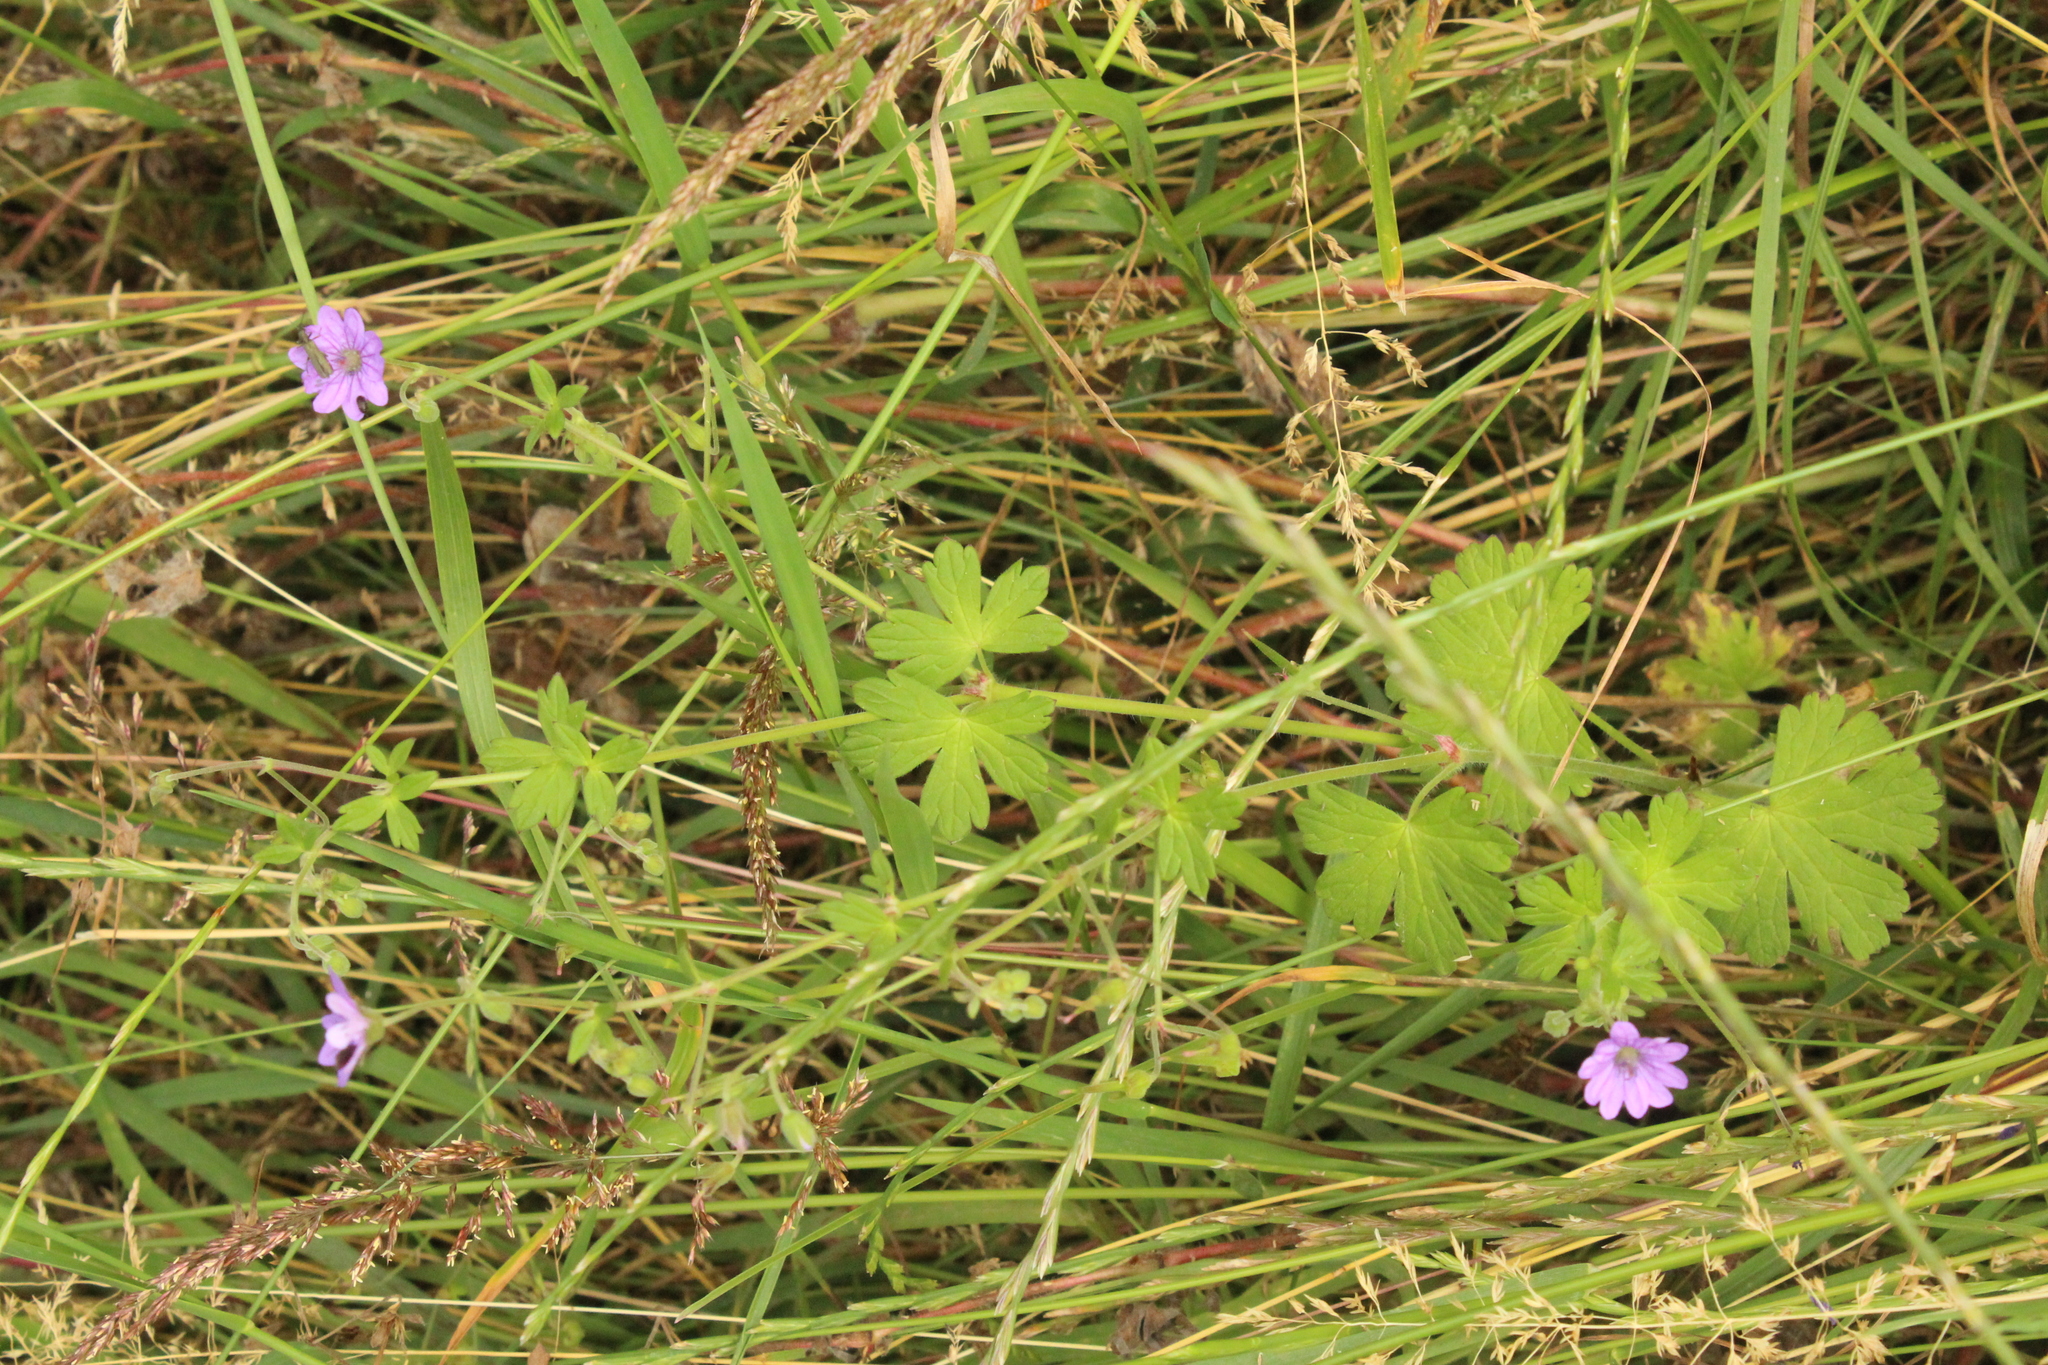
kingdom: Plantae
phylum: Tracheophyta
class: Magnoliopsida
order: Geraniales
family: Geraniaceae
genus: Geranium
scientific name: Geranium pyrenaicum
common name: Hedgerow crane's-bill
